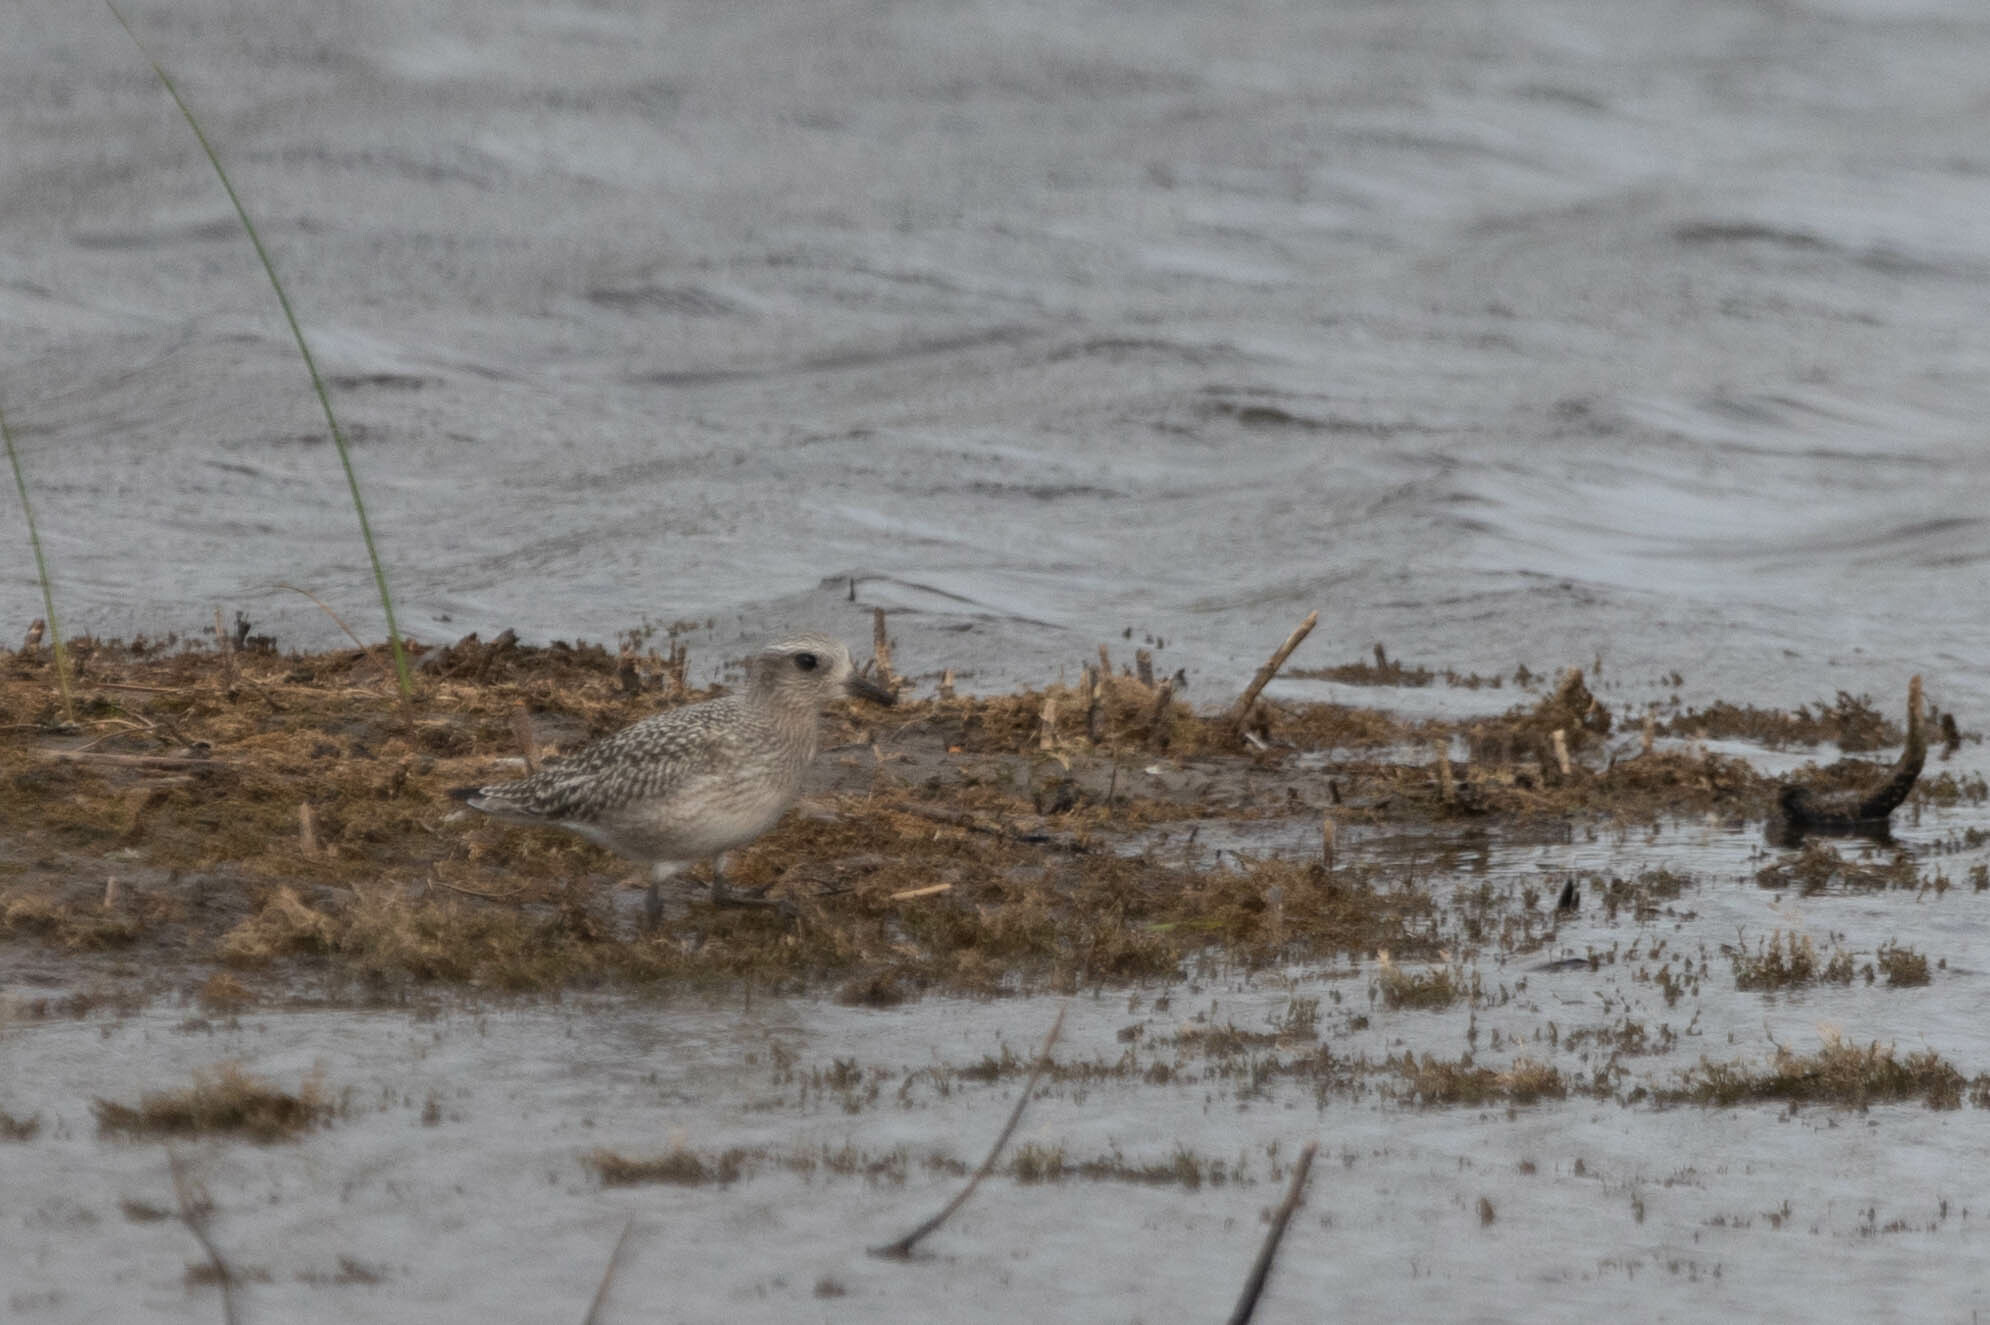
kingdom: Animalia
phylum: Chordata
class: Aves
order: Charadriiformes
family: Charadriidae
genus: Pluvialis
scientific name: Pluvialis squatarola
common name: Grey plover
